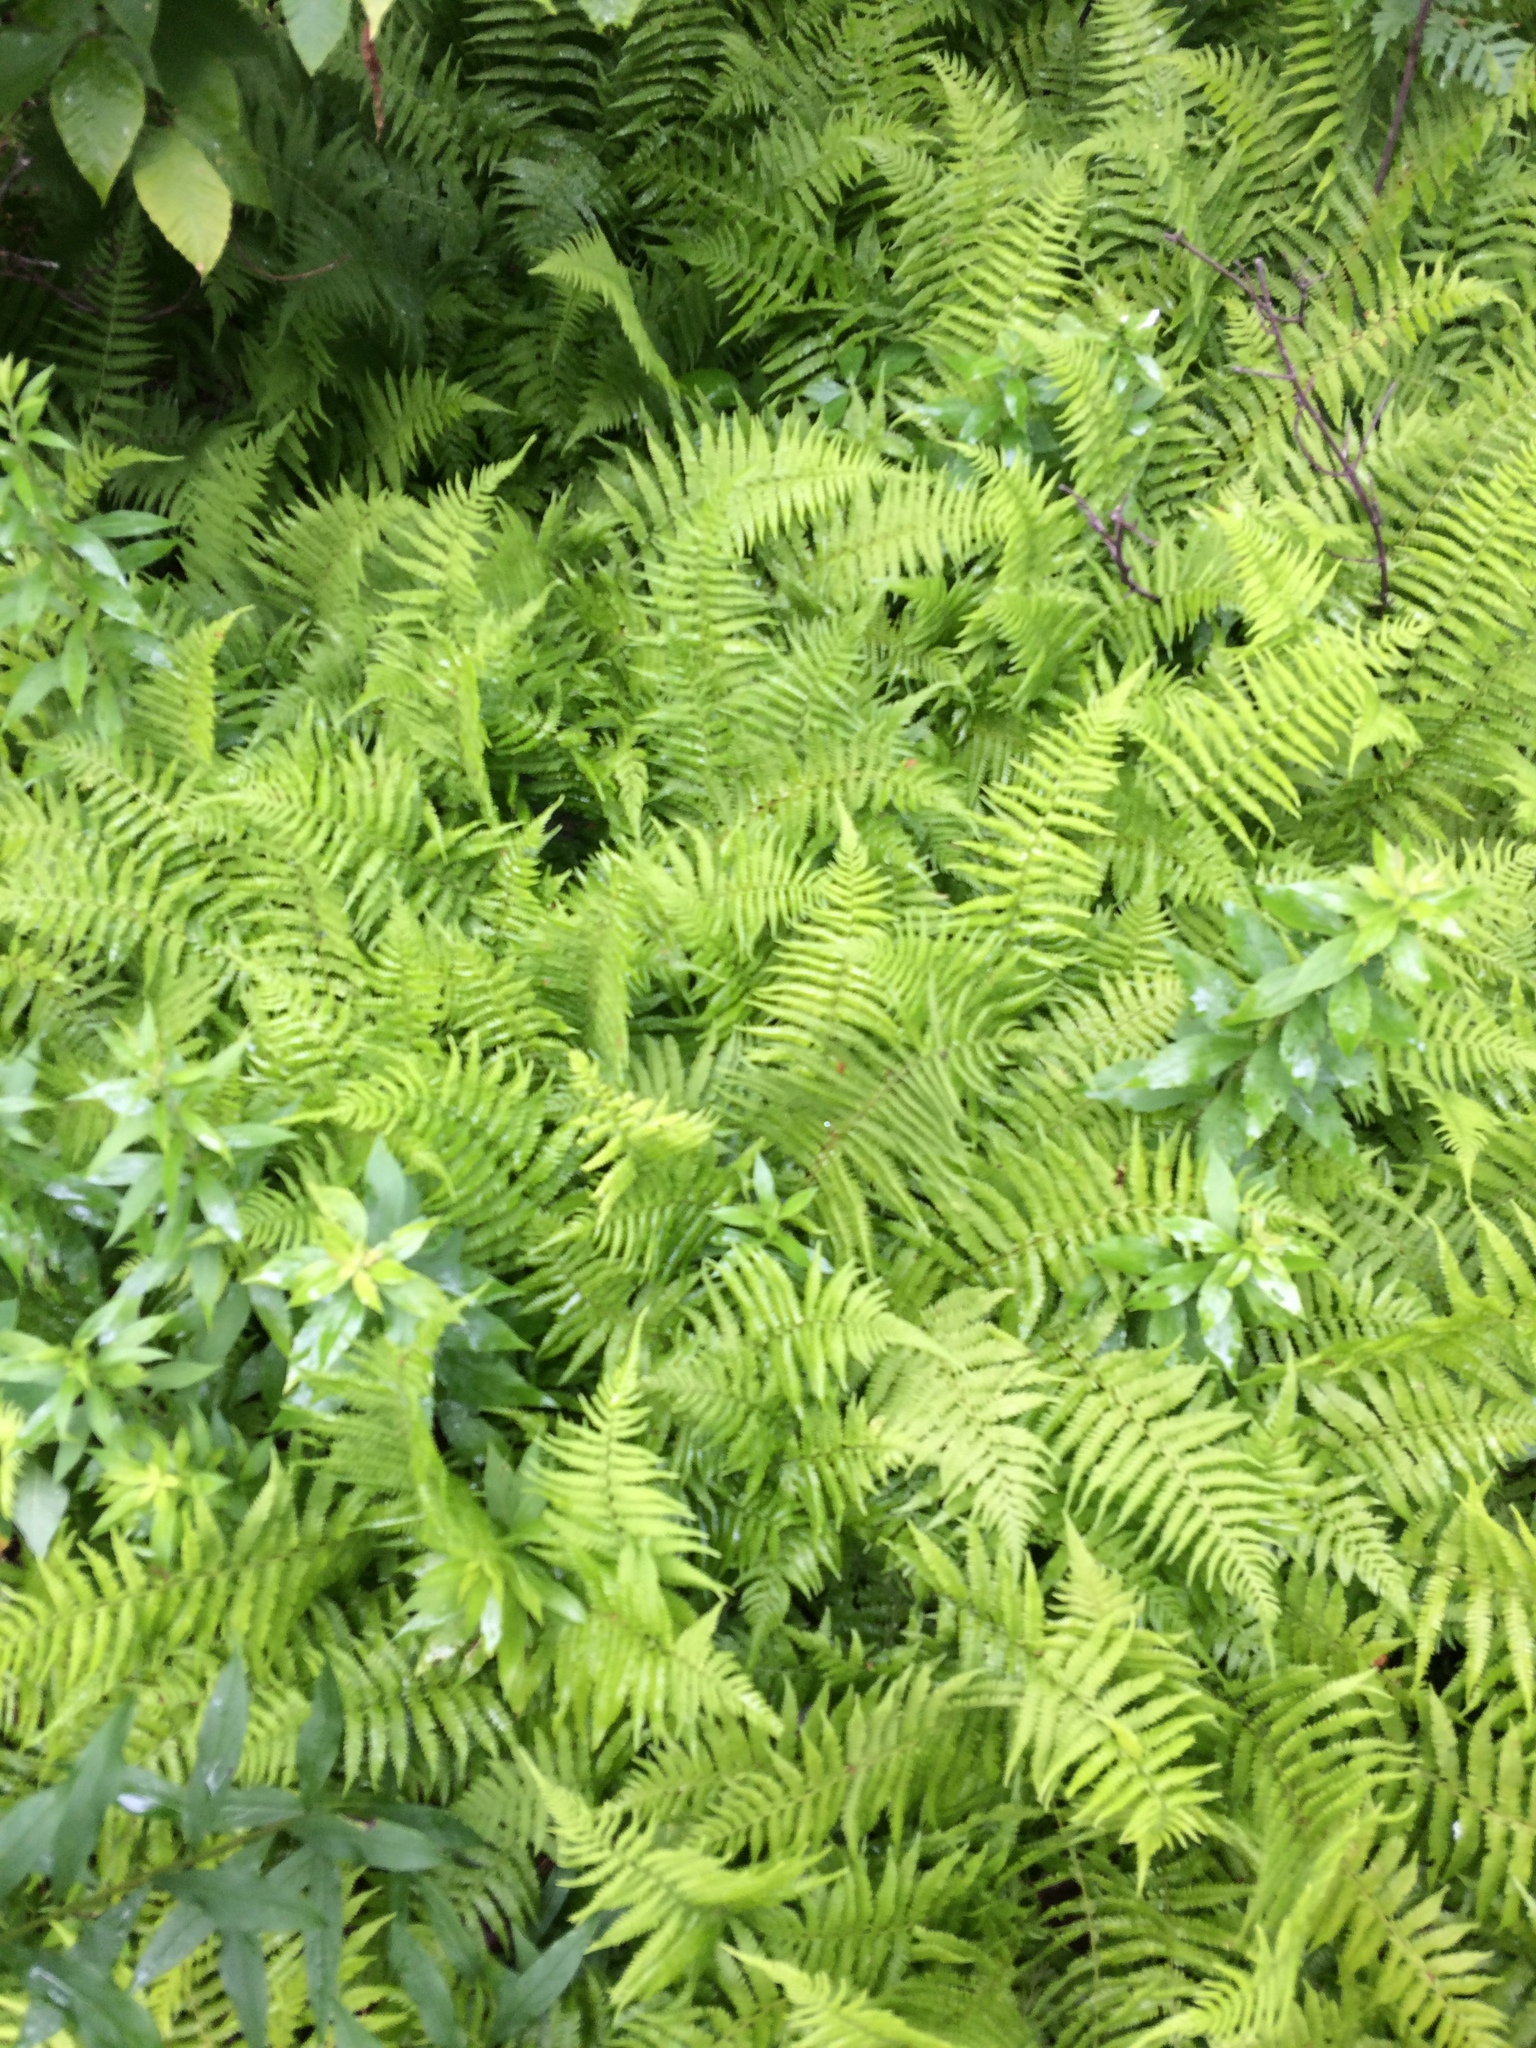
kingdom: Plantae
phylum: Tracheophyta
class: Polypodiopsida
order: Polypodiales
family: Dennstaedtiaceae
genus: Sitobolium
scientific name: Sitobolium punctilobum
